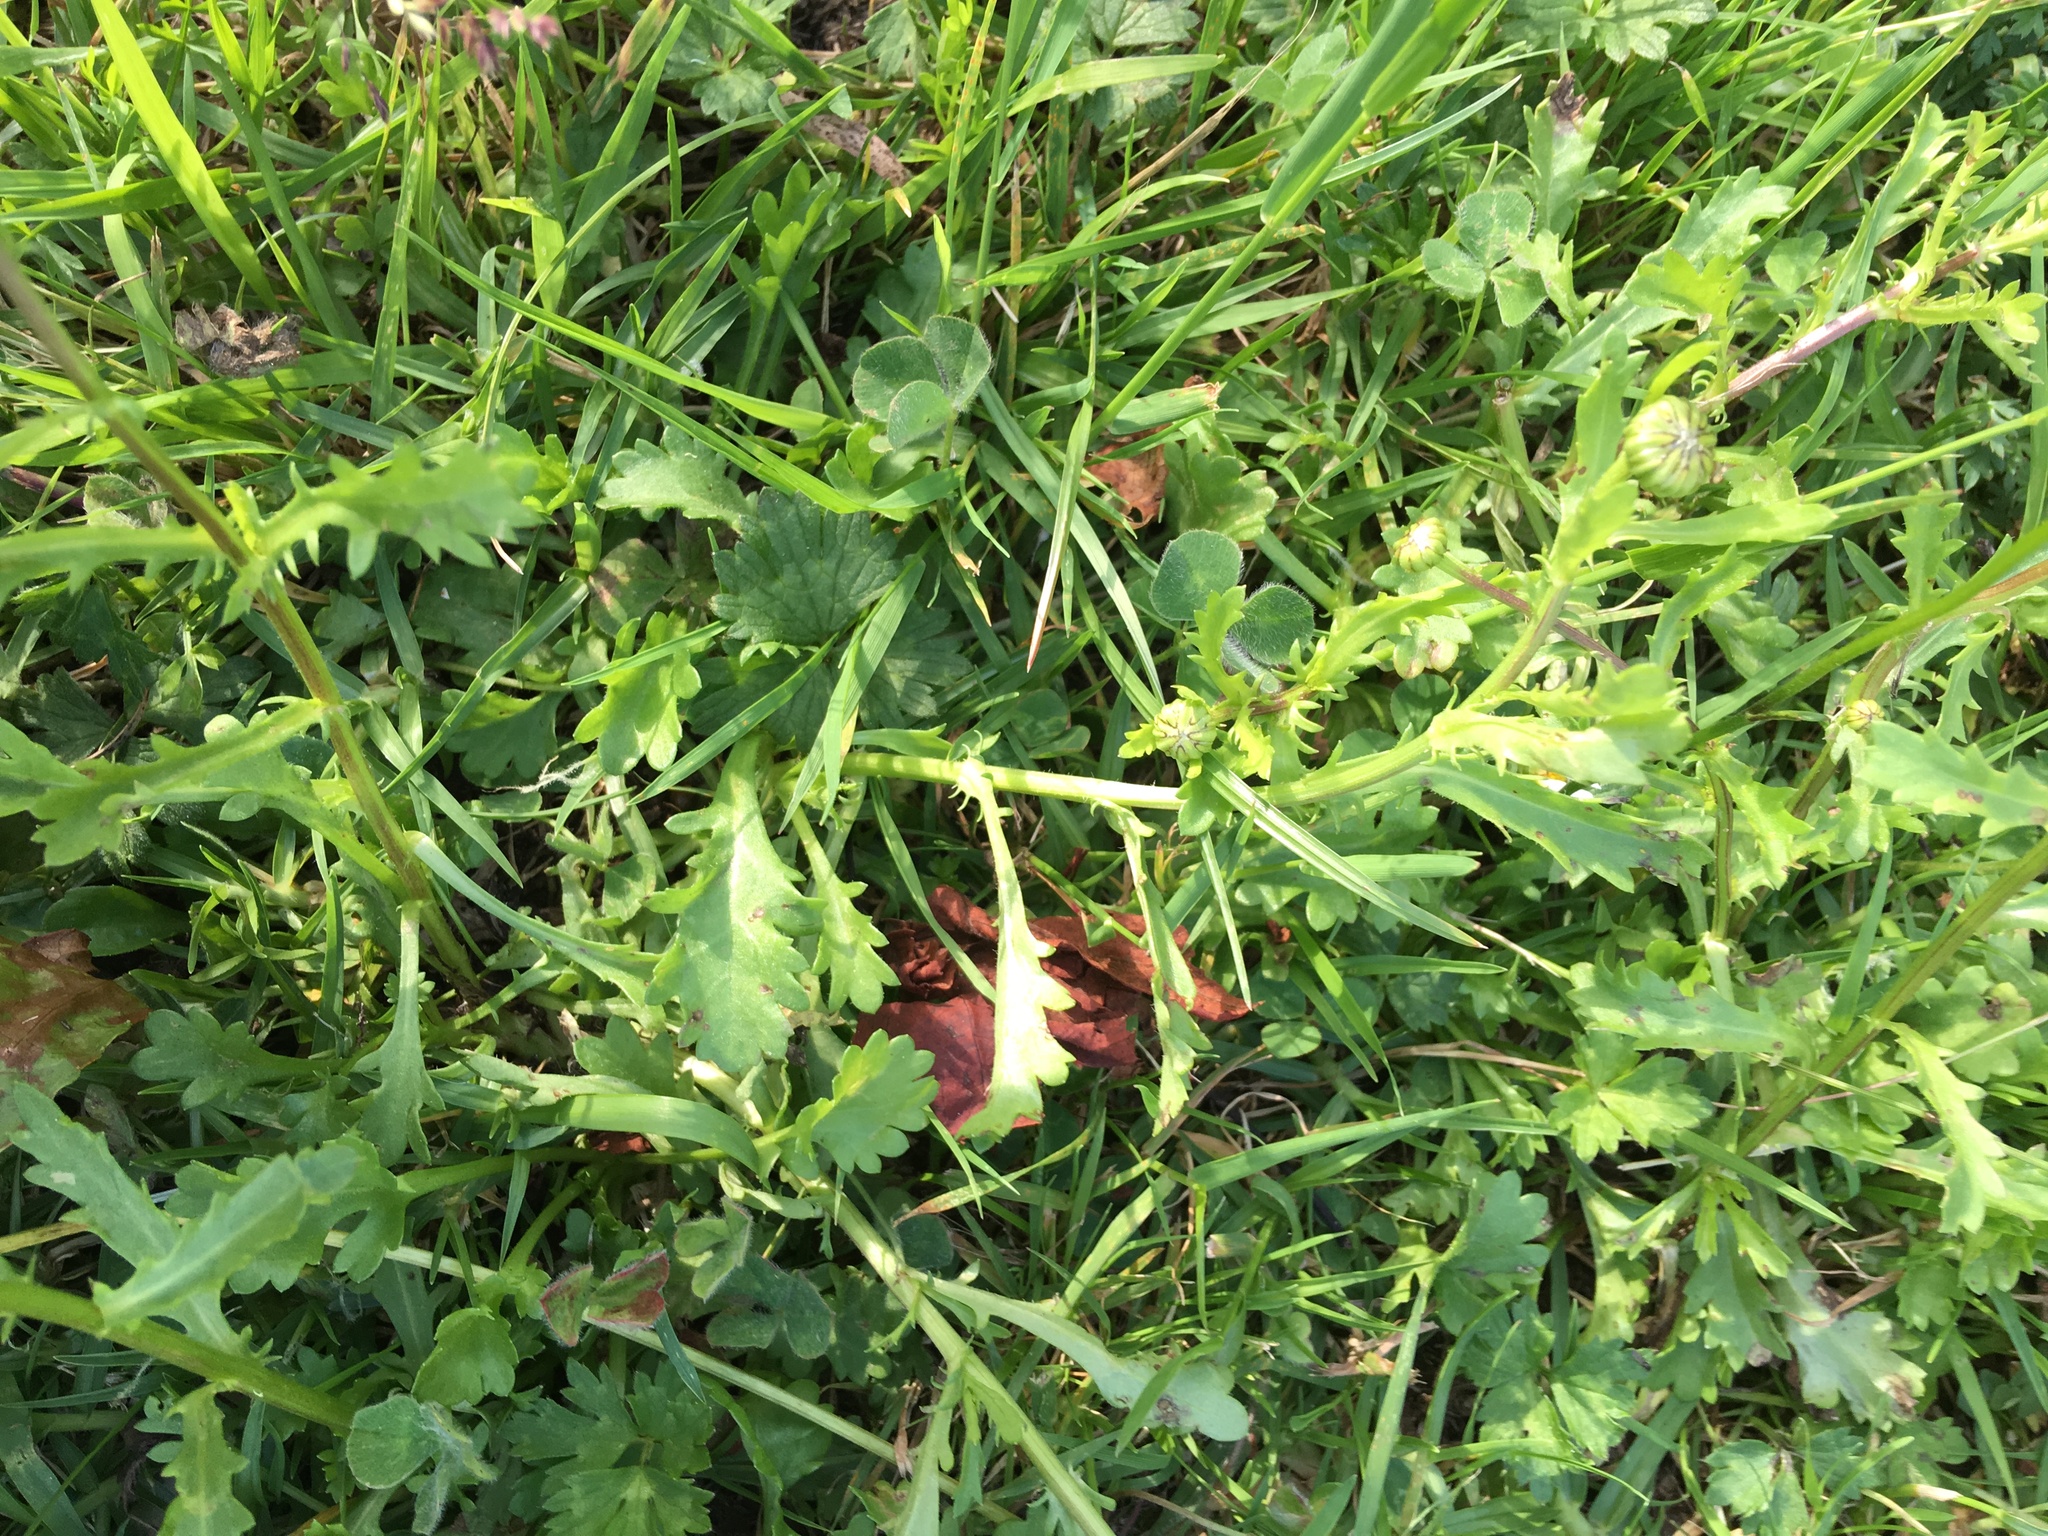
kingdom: Plantae
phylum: Tracheophyta
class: Magnoliopsida
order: Asterales
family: Asteraceae
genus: Leucanthemum
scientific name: Leucanthemum vulgare
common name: Oxeye daisy
